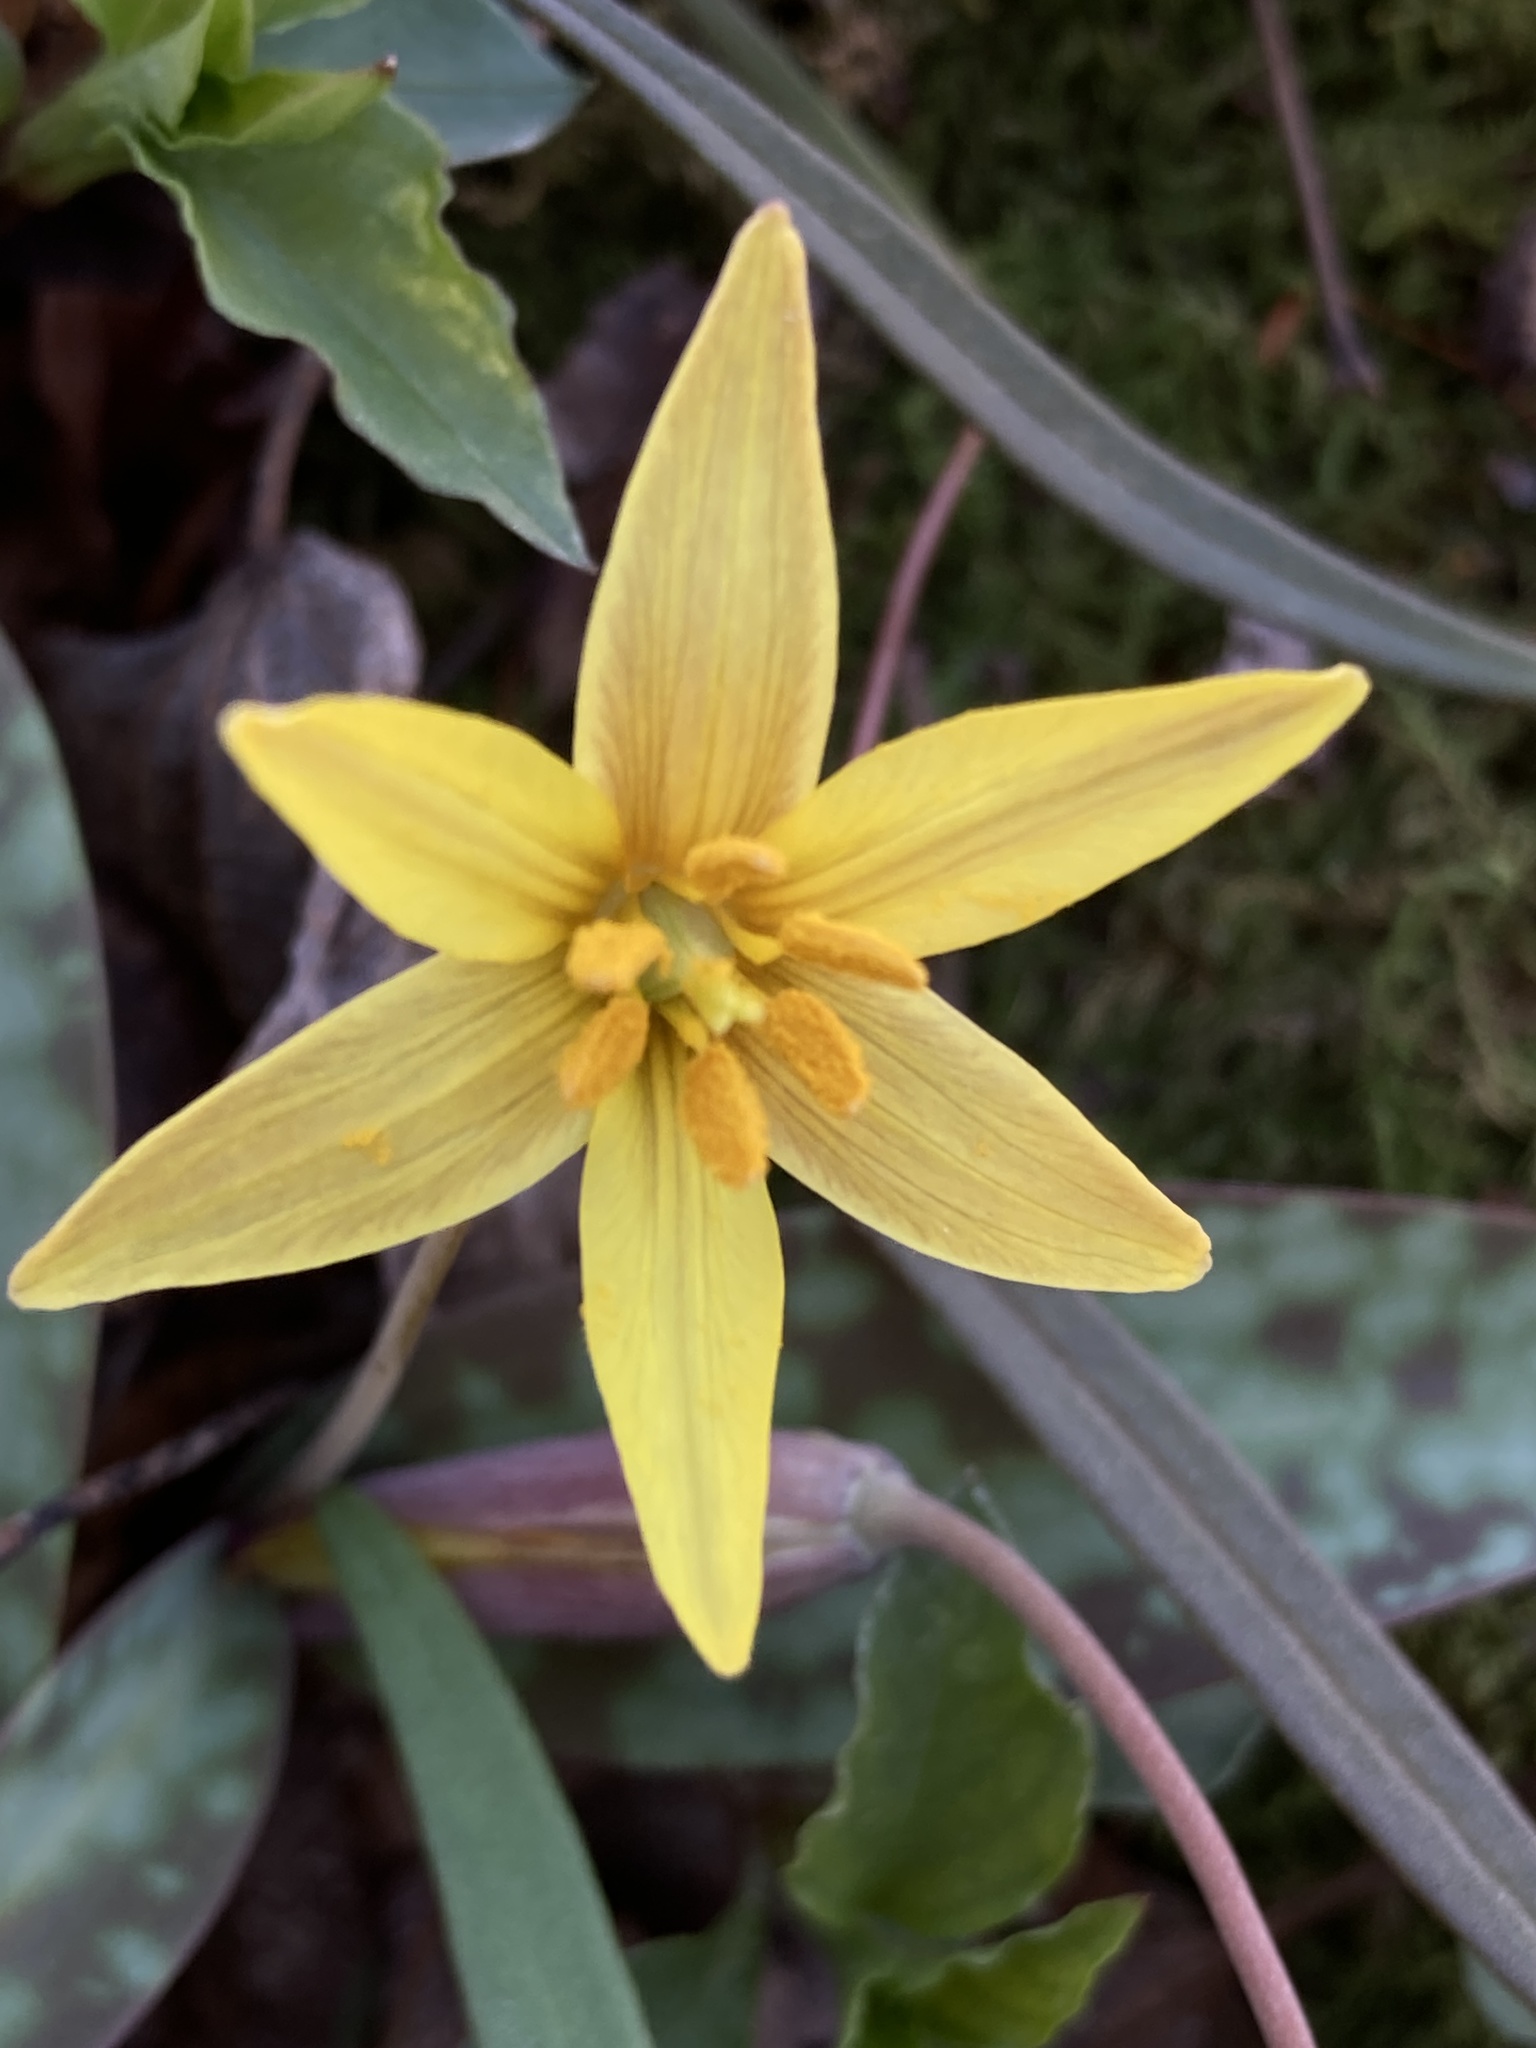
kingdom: Plantae
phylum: Tracheophyta
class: Liliopsida
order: Liliales
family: Liliaceae
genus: Erythronium
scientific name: Erythronium rostratum
